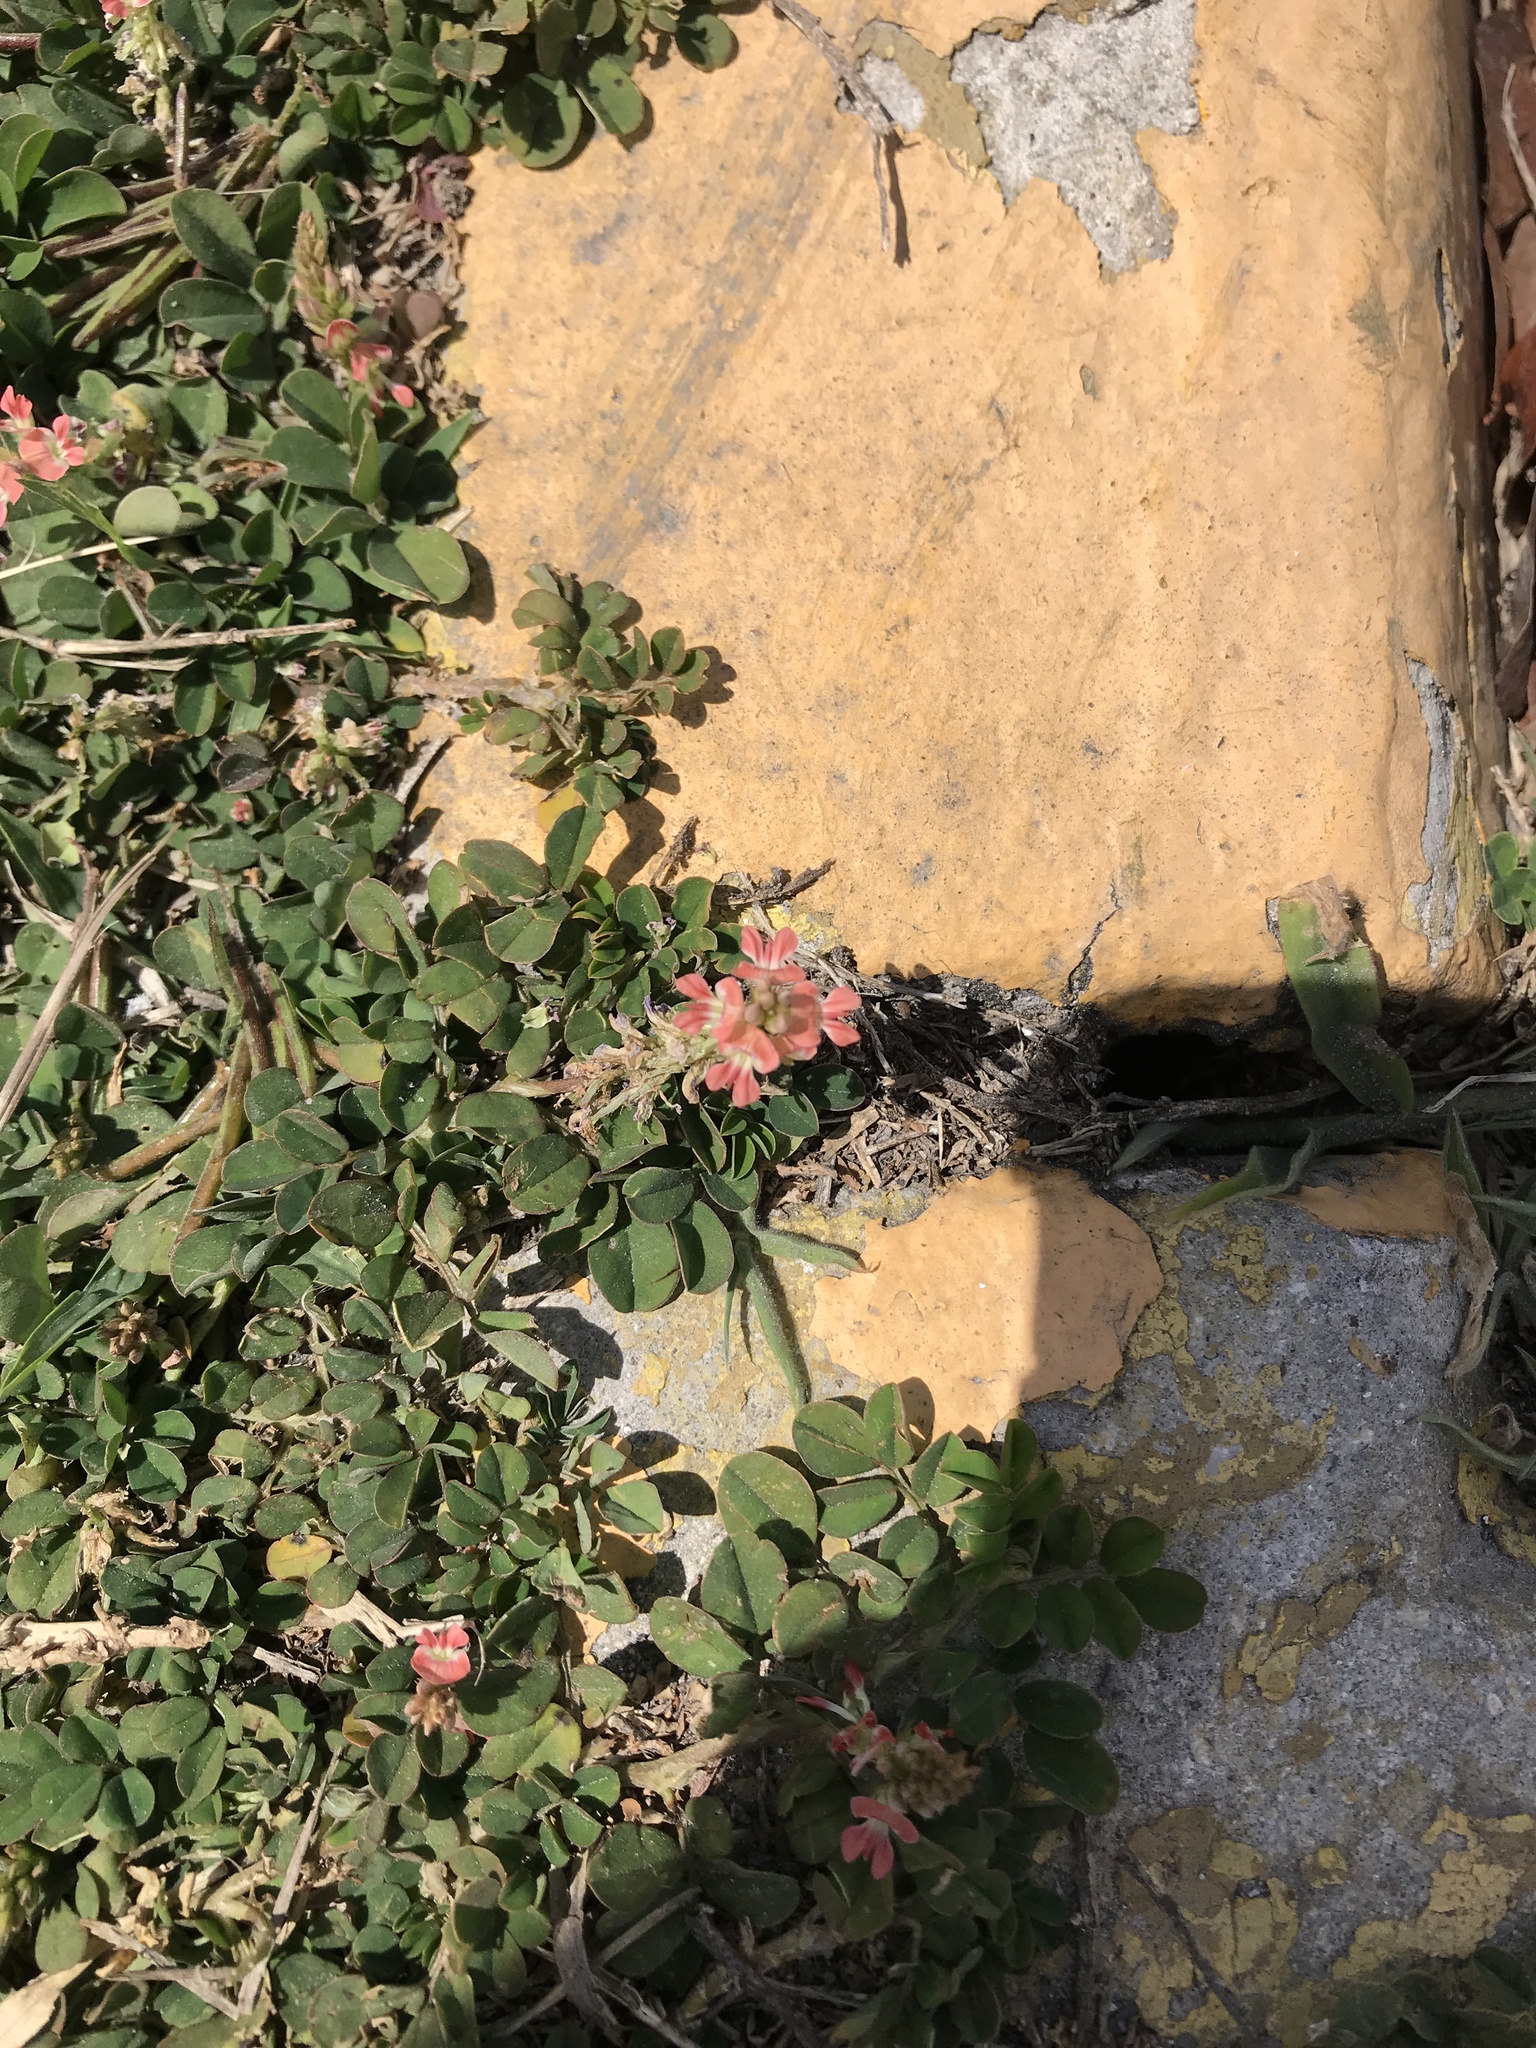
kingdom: Plantae
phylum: Tracheophyta
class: Magnoliopsida
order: Fabales
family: Fabaceae
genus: Indigofera
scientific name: Indigofera spicata
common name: Creeping indigo
